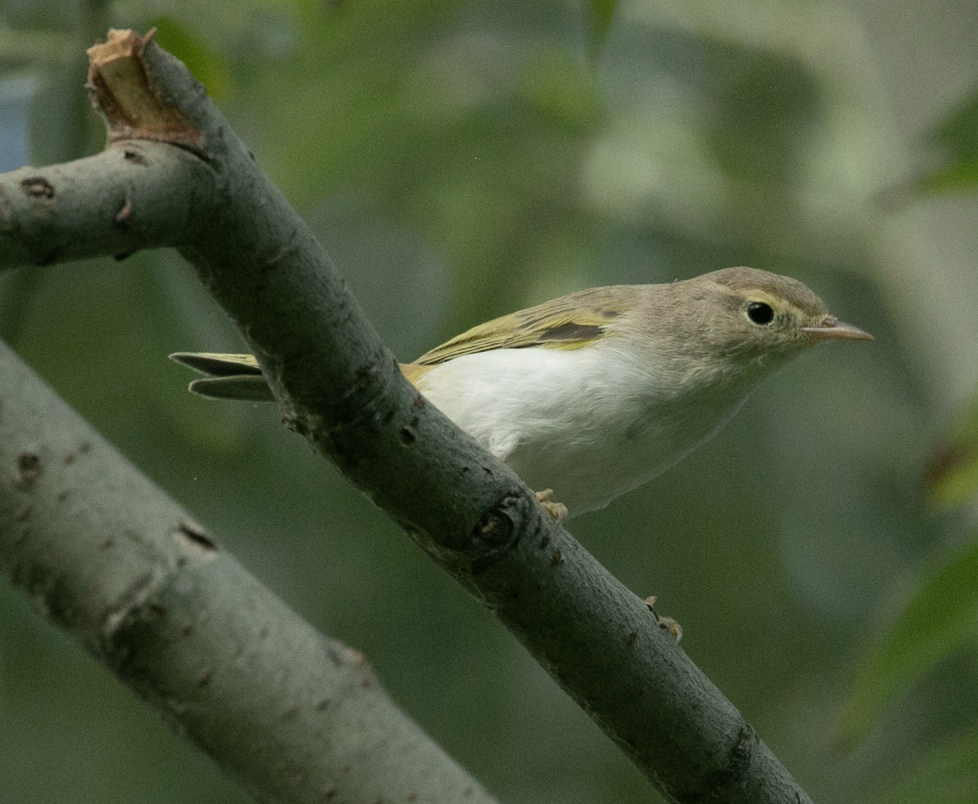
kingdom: Animalia
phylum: Chordata
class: Aves
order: Passeriformes
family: Phylloscopidae
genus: Phylloscopus
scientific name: Phylloscopus bonelli
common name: Western bonelli's warbler
